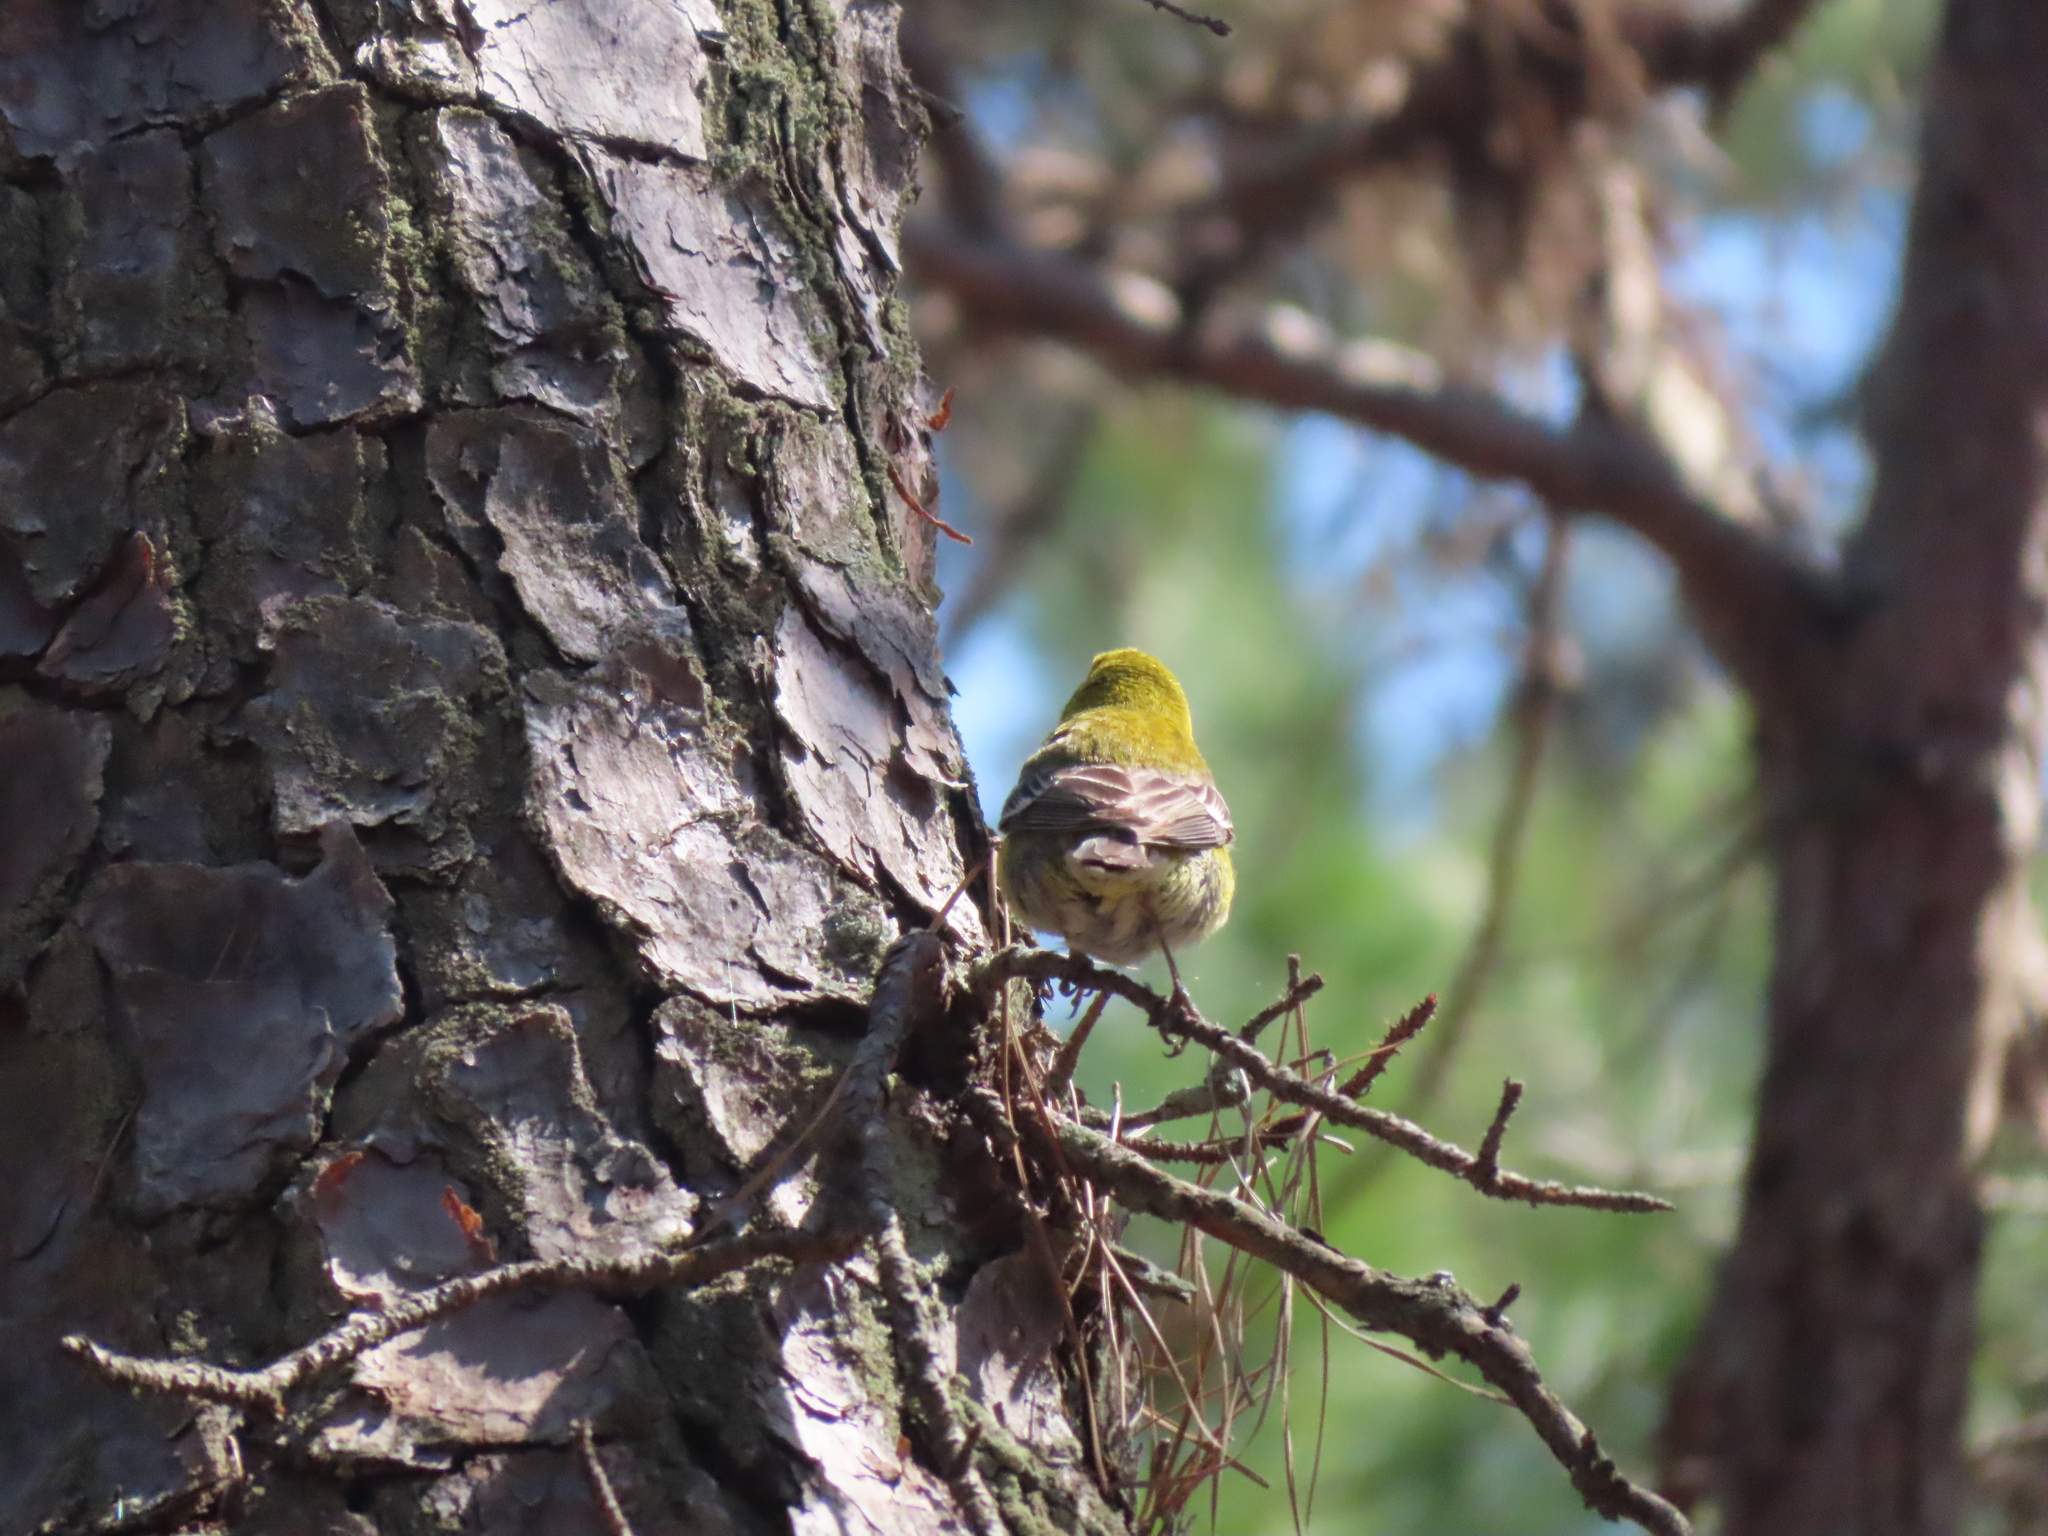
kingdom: Animalia
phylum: Chordata
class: Aves
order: Passeriformes
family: Parulidae
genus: Setophaga
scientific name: Setophaga pinus
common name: Pine warbler
